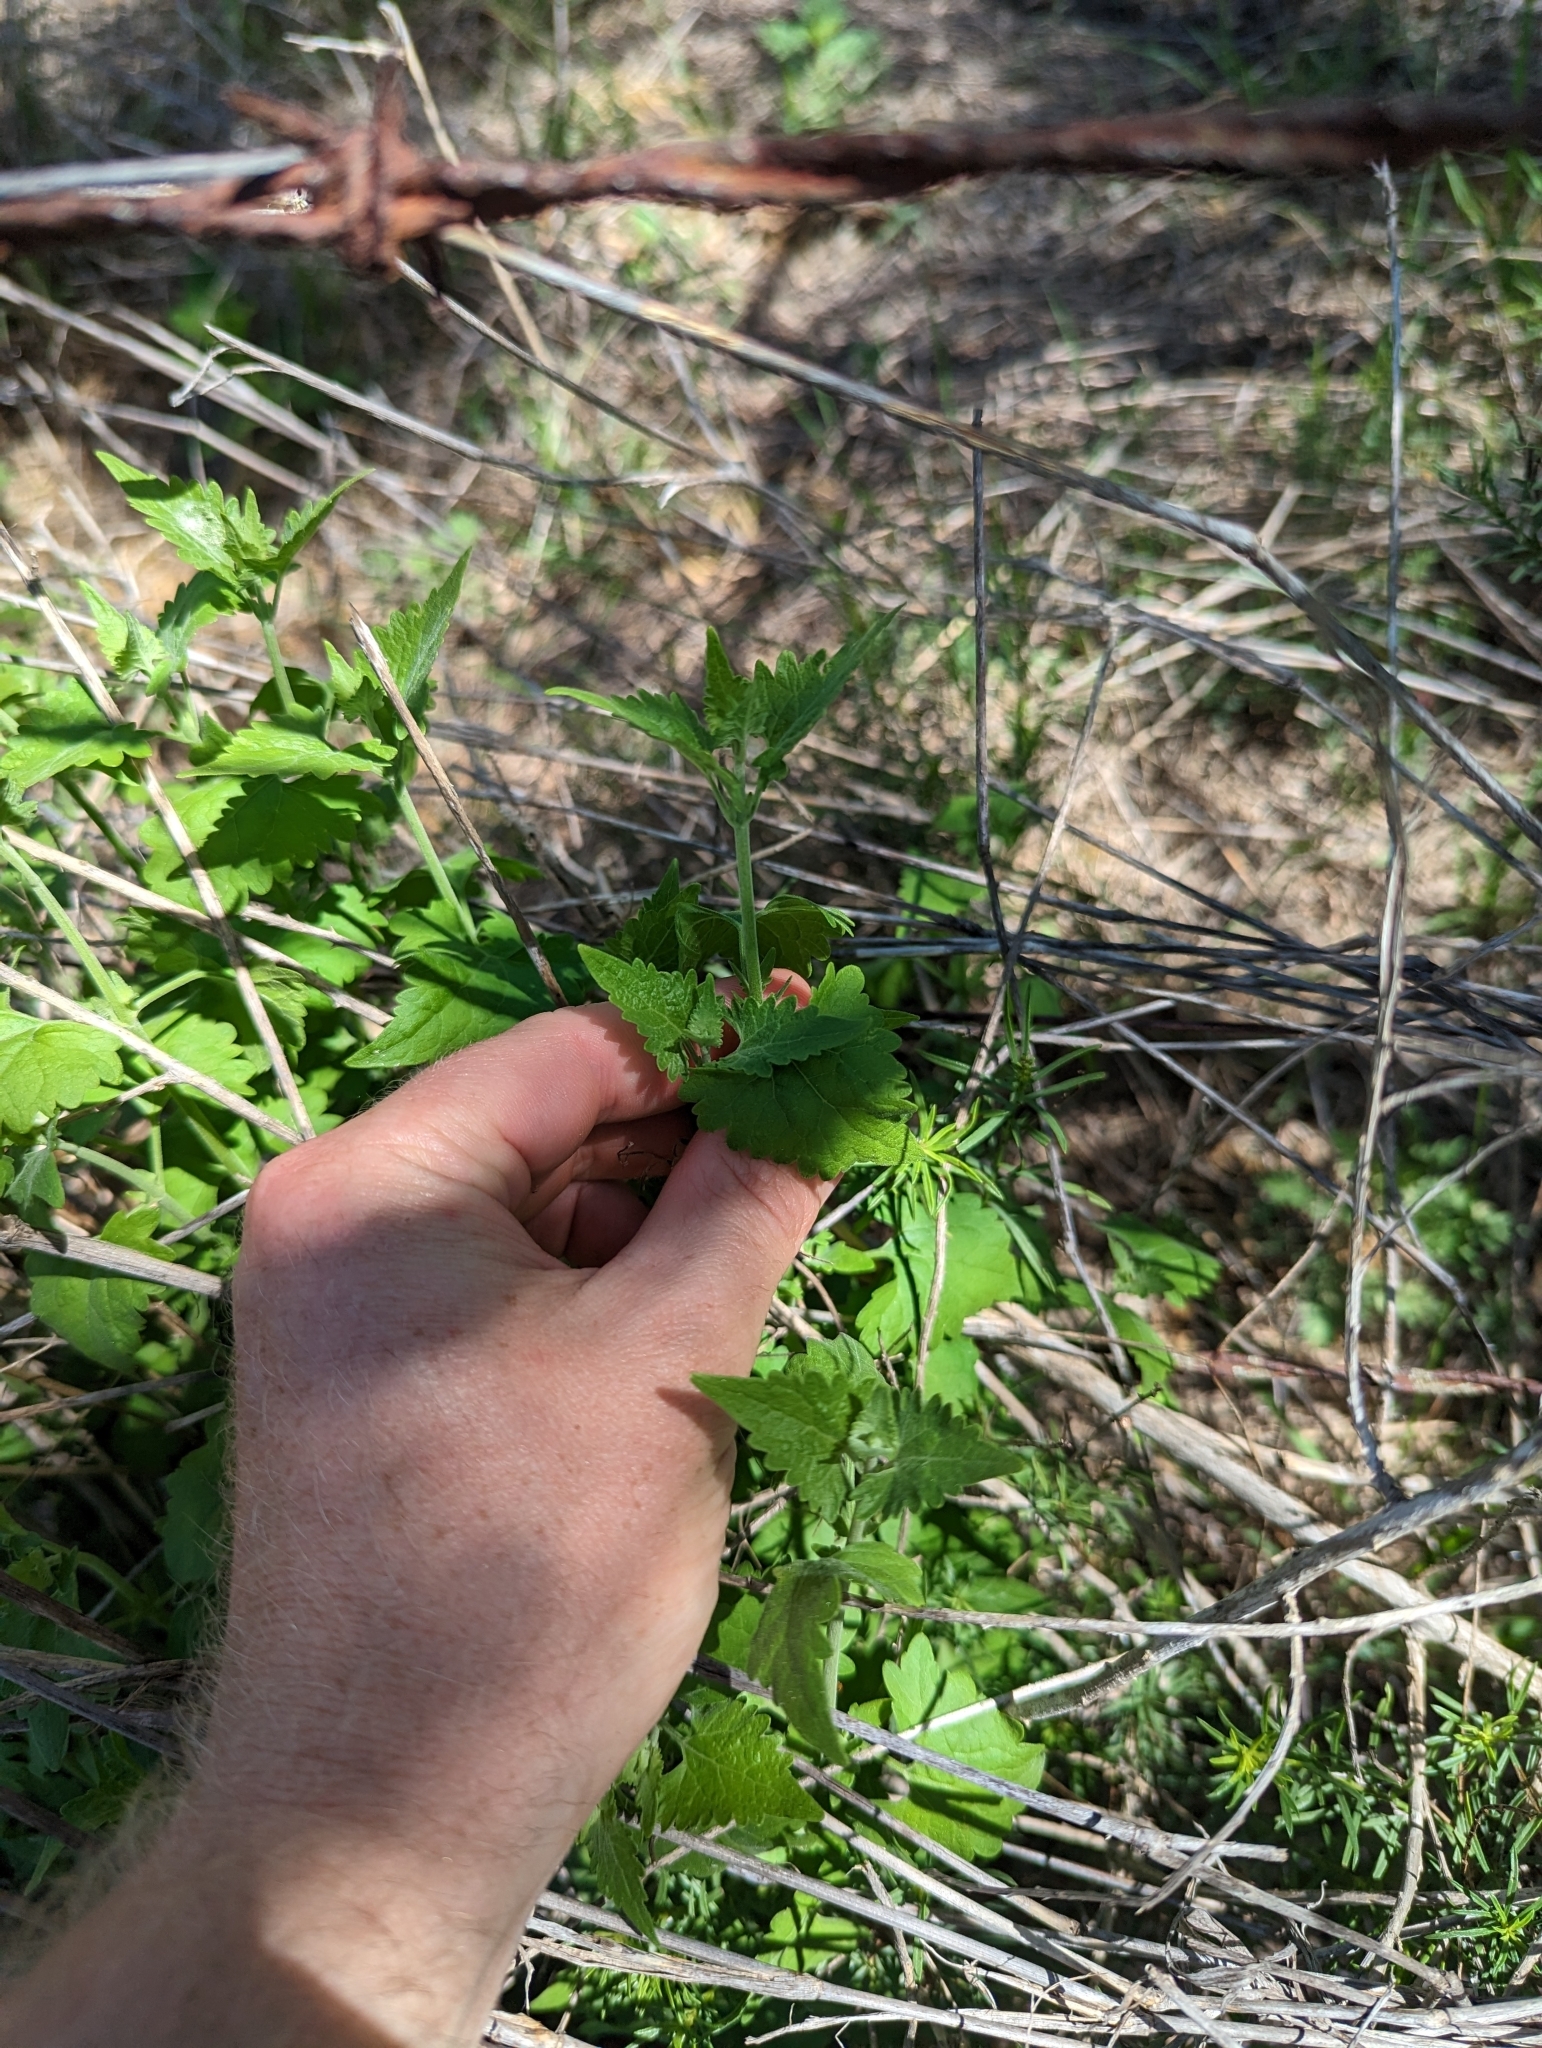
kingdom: Plantae
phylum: Tracheophyta
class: Magnoliopsida
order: Asterales
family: Asteraceae
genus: Fleischmannia
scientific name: Fleischmannia incarnata
